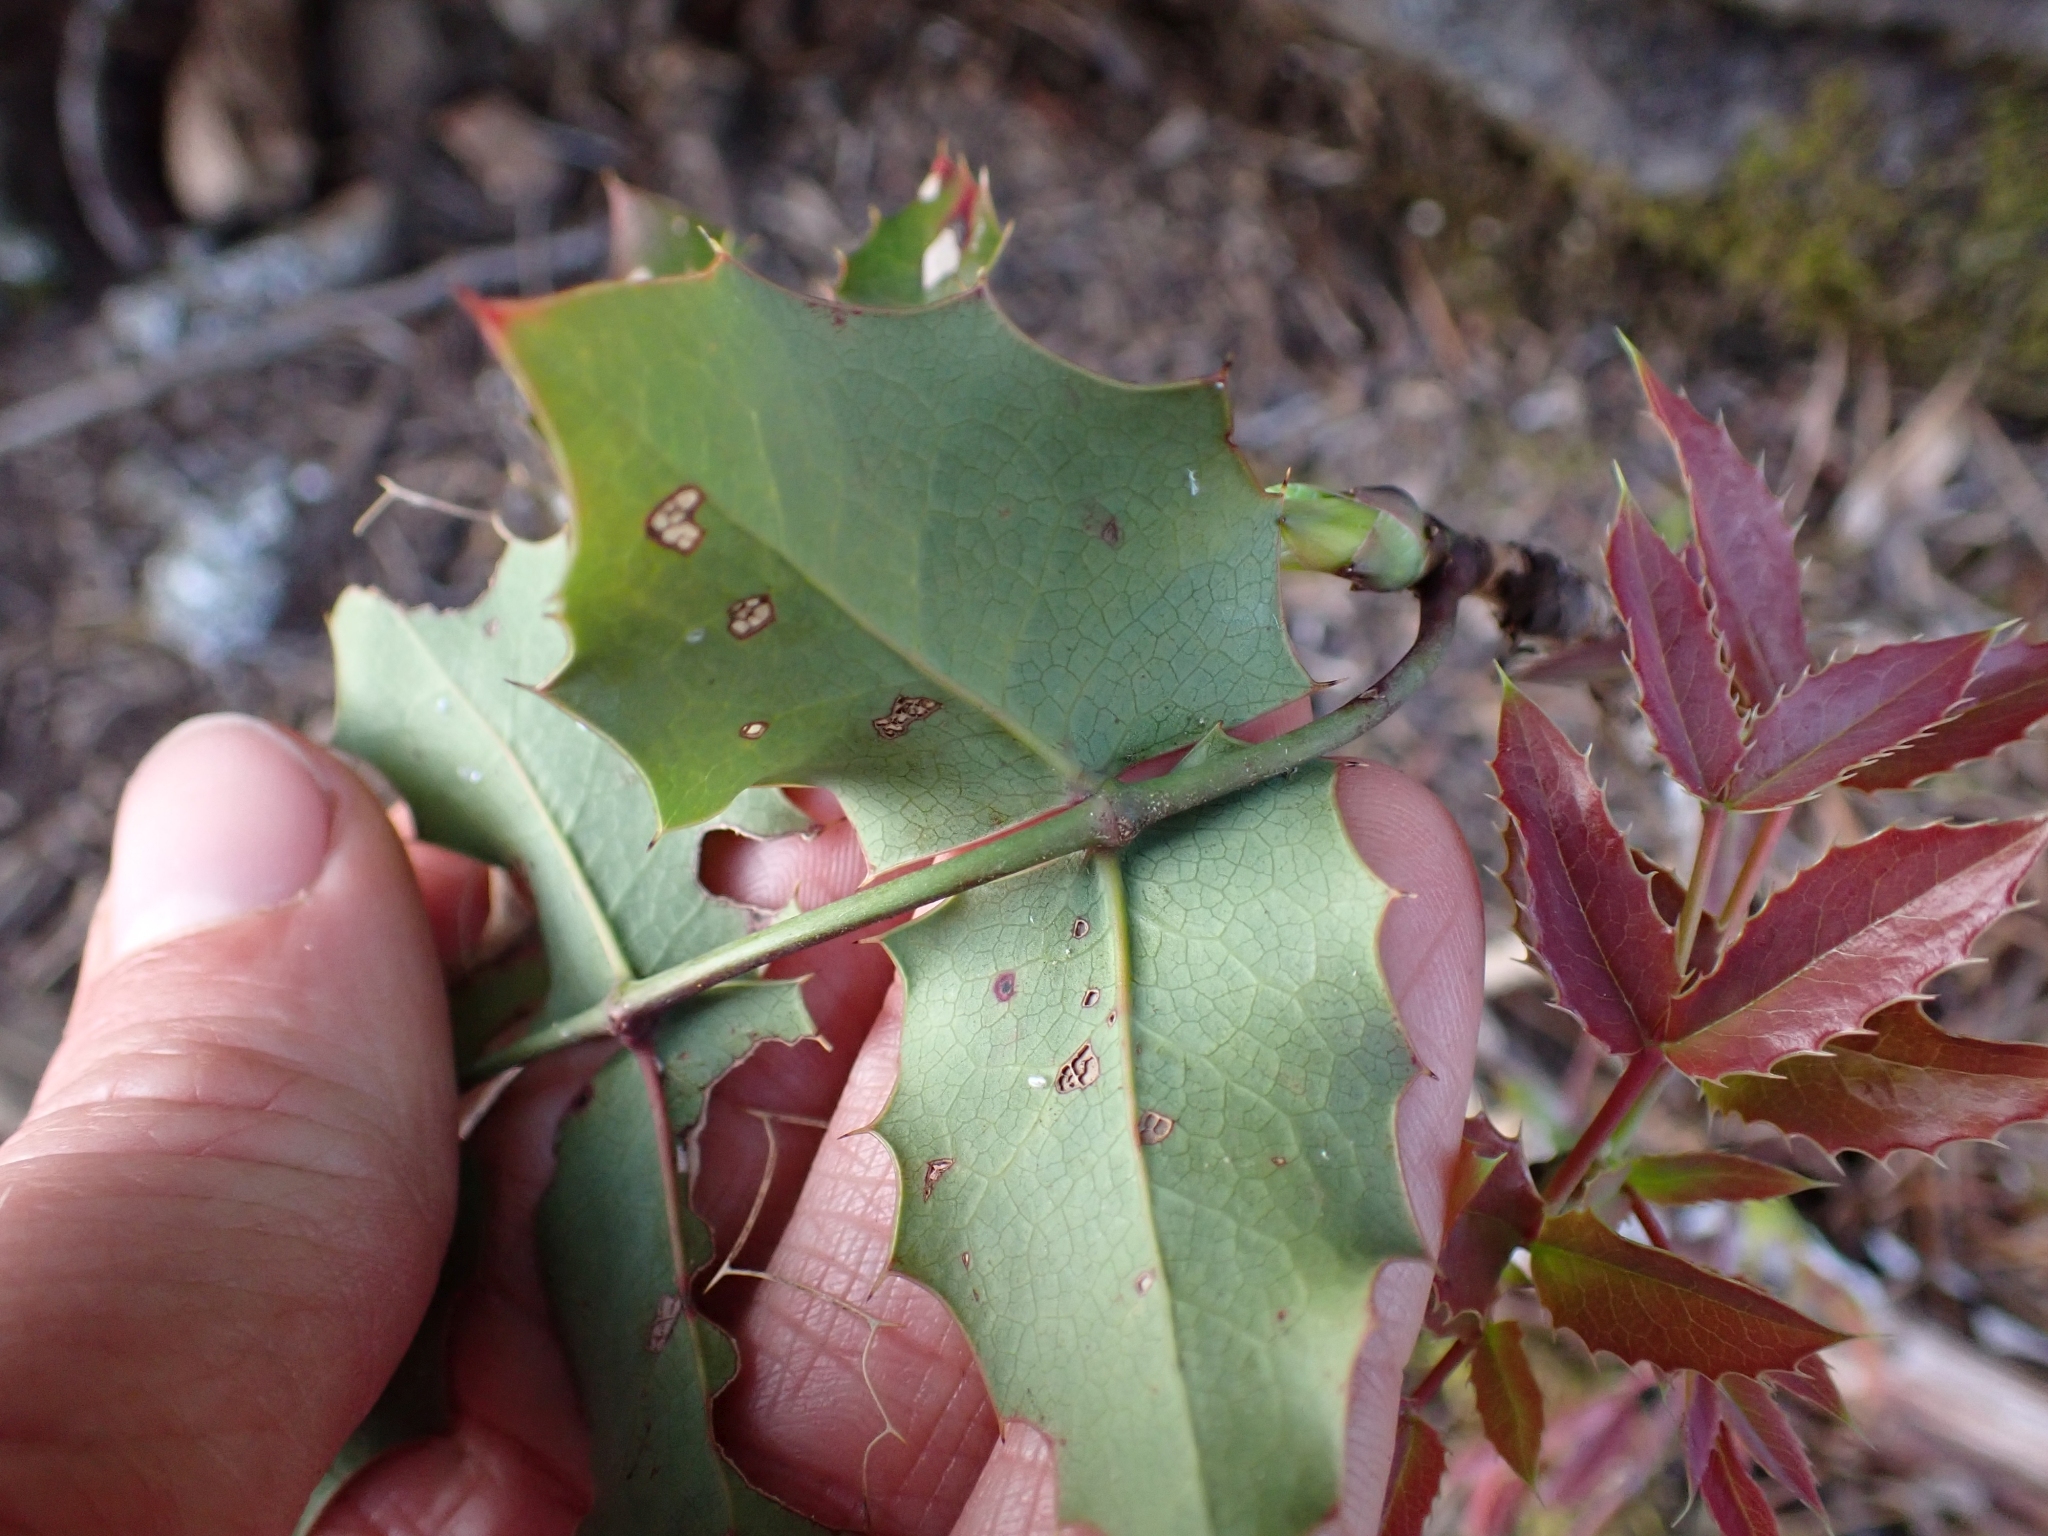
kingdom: Plantae
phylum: Tracheophyta
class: Magnoliopsida
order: Ranunculales
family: Berberidaceae
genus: Mahonia
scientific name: Mahonia aquifolium
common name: Oregon-grape
